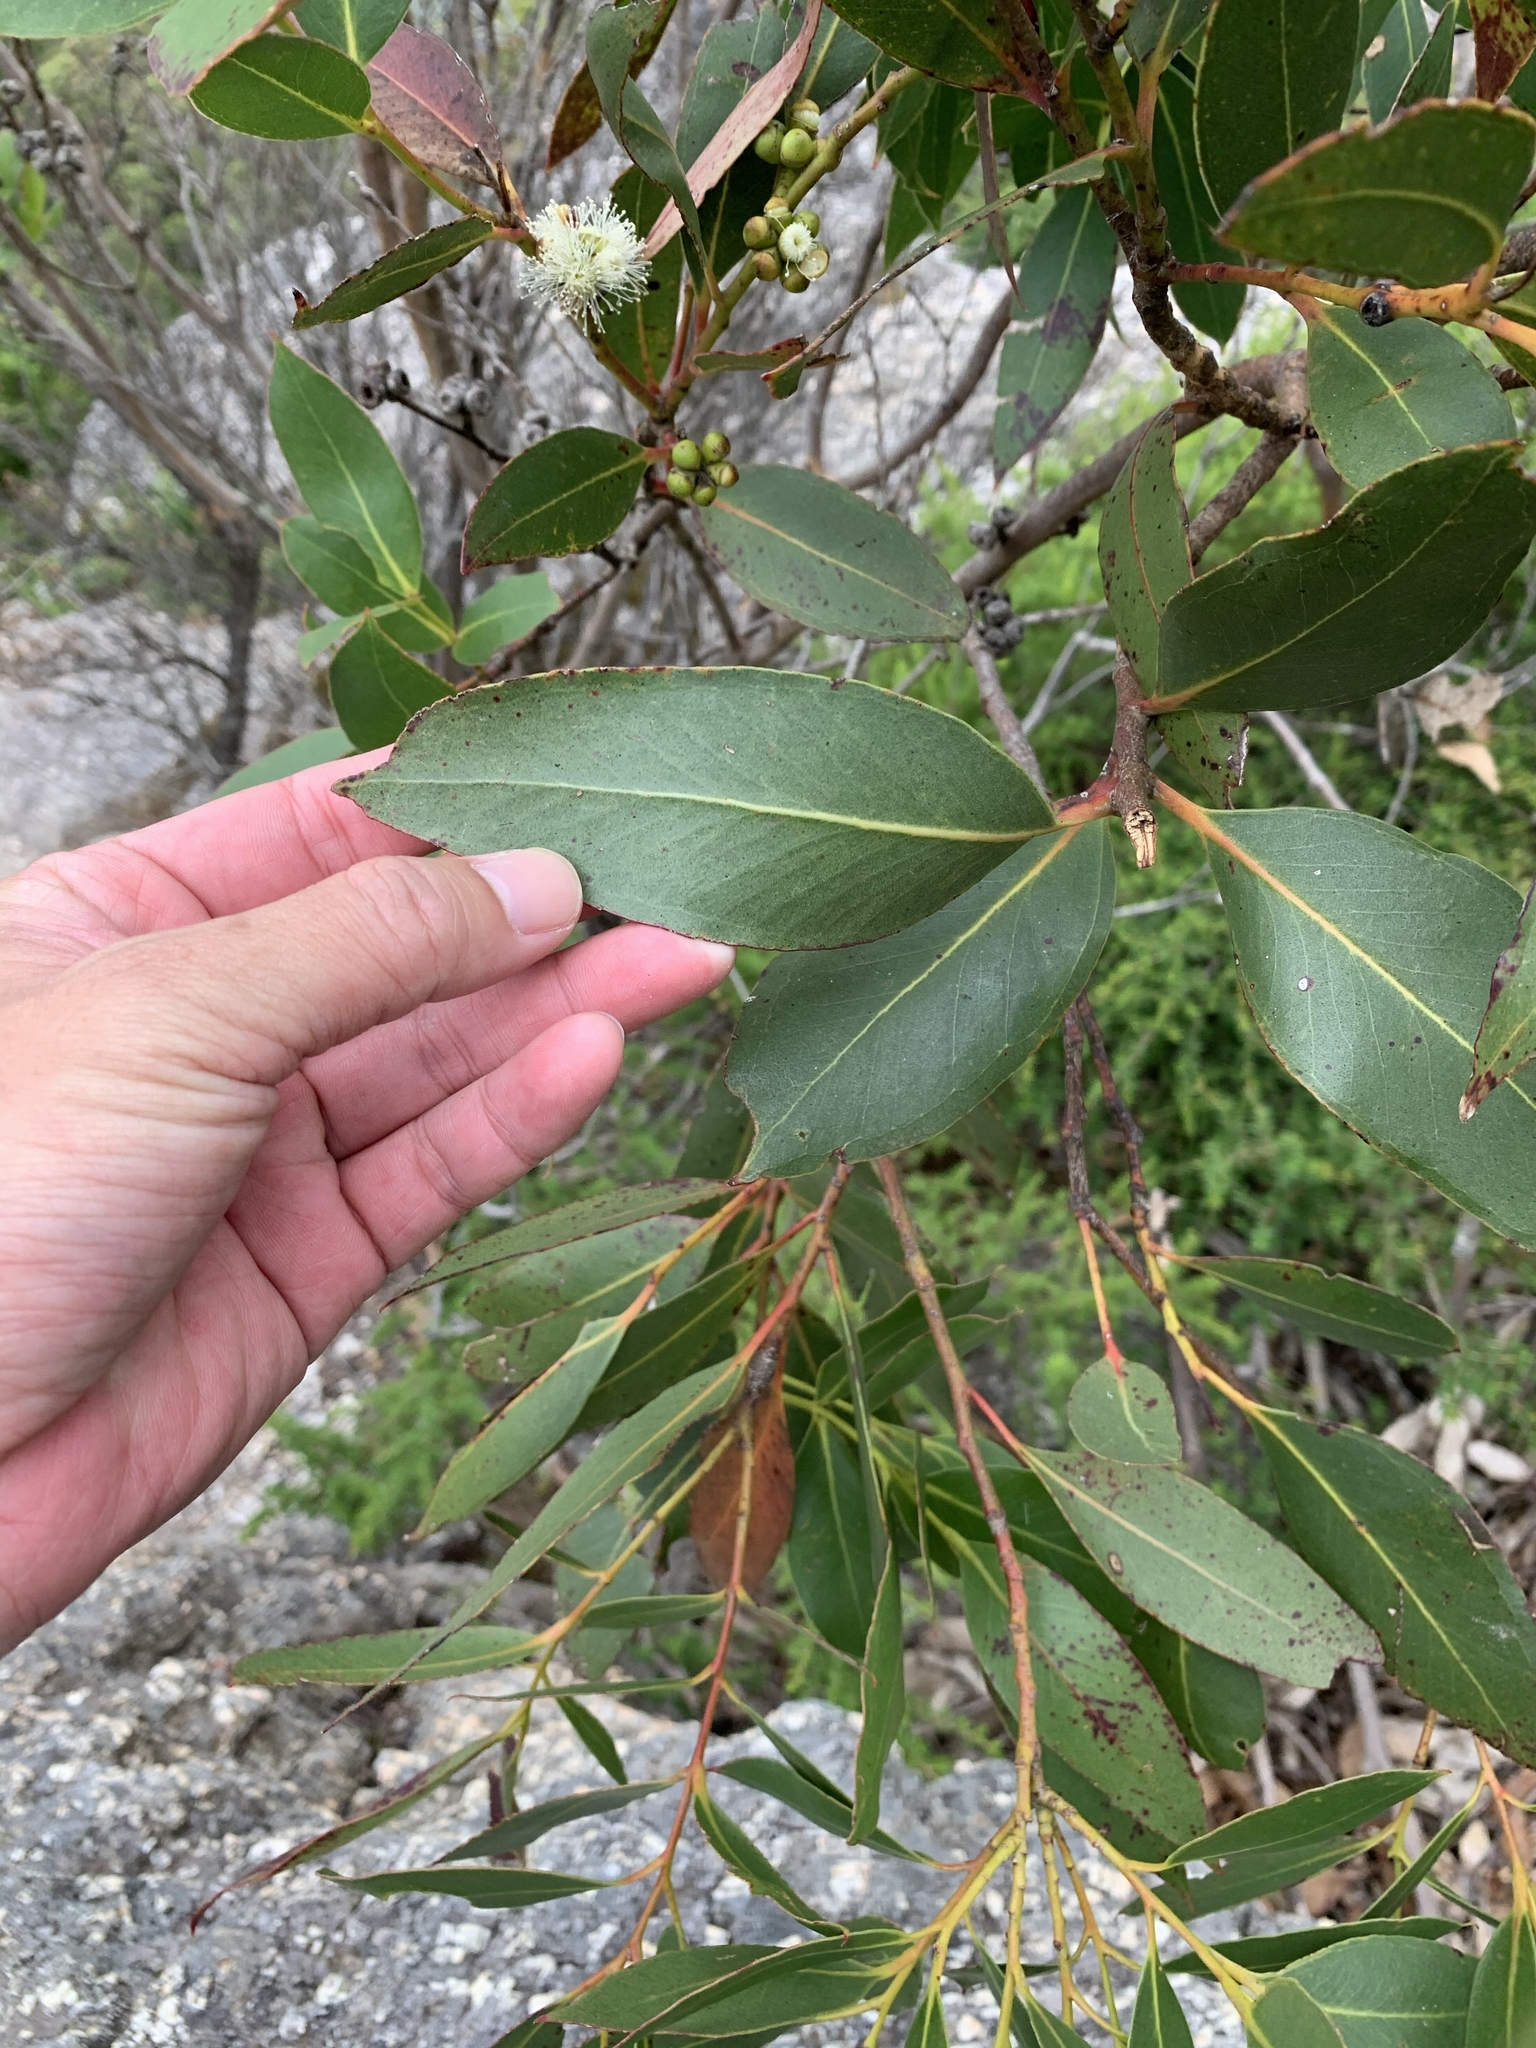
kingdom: Plantae
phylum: Tracheophyta
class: Magnoliopsida
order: Myrtales
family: Myrtaceae
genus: Eucalyptus
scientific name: Eucalyptus kitsoniana
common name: Gippsland mallee
